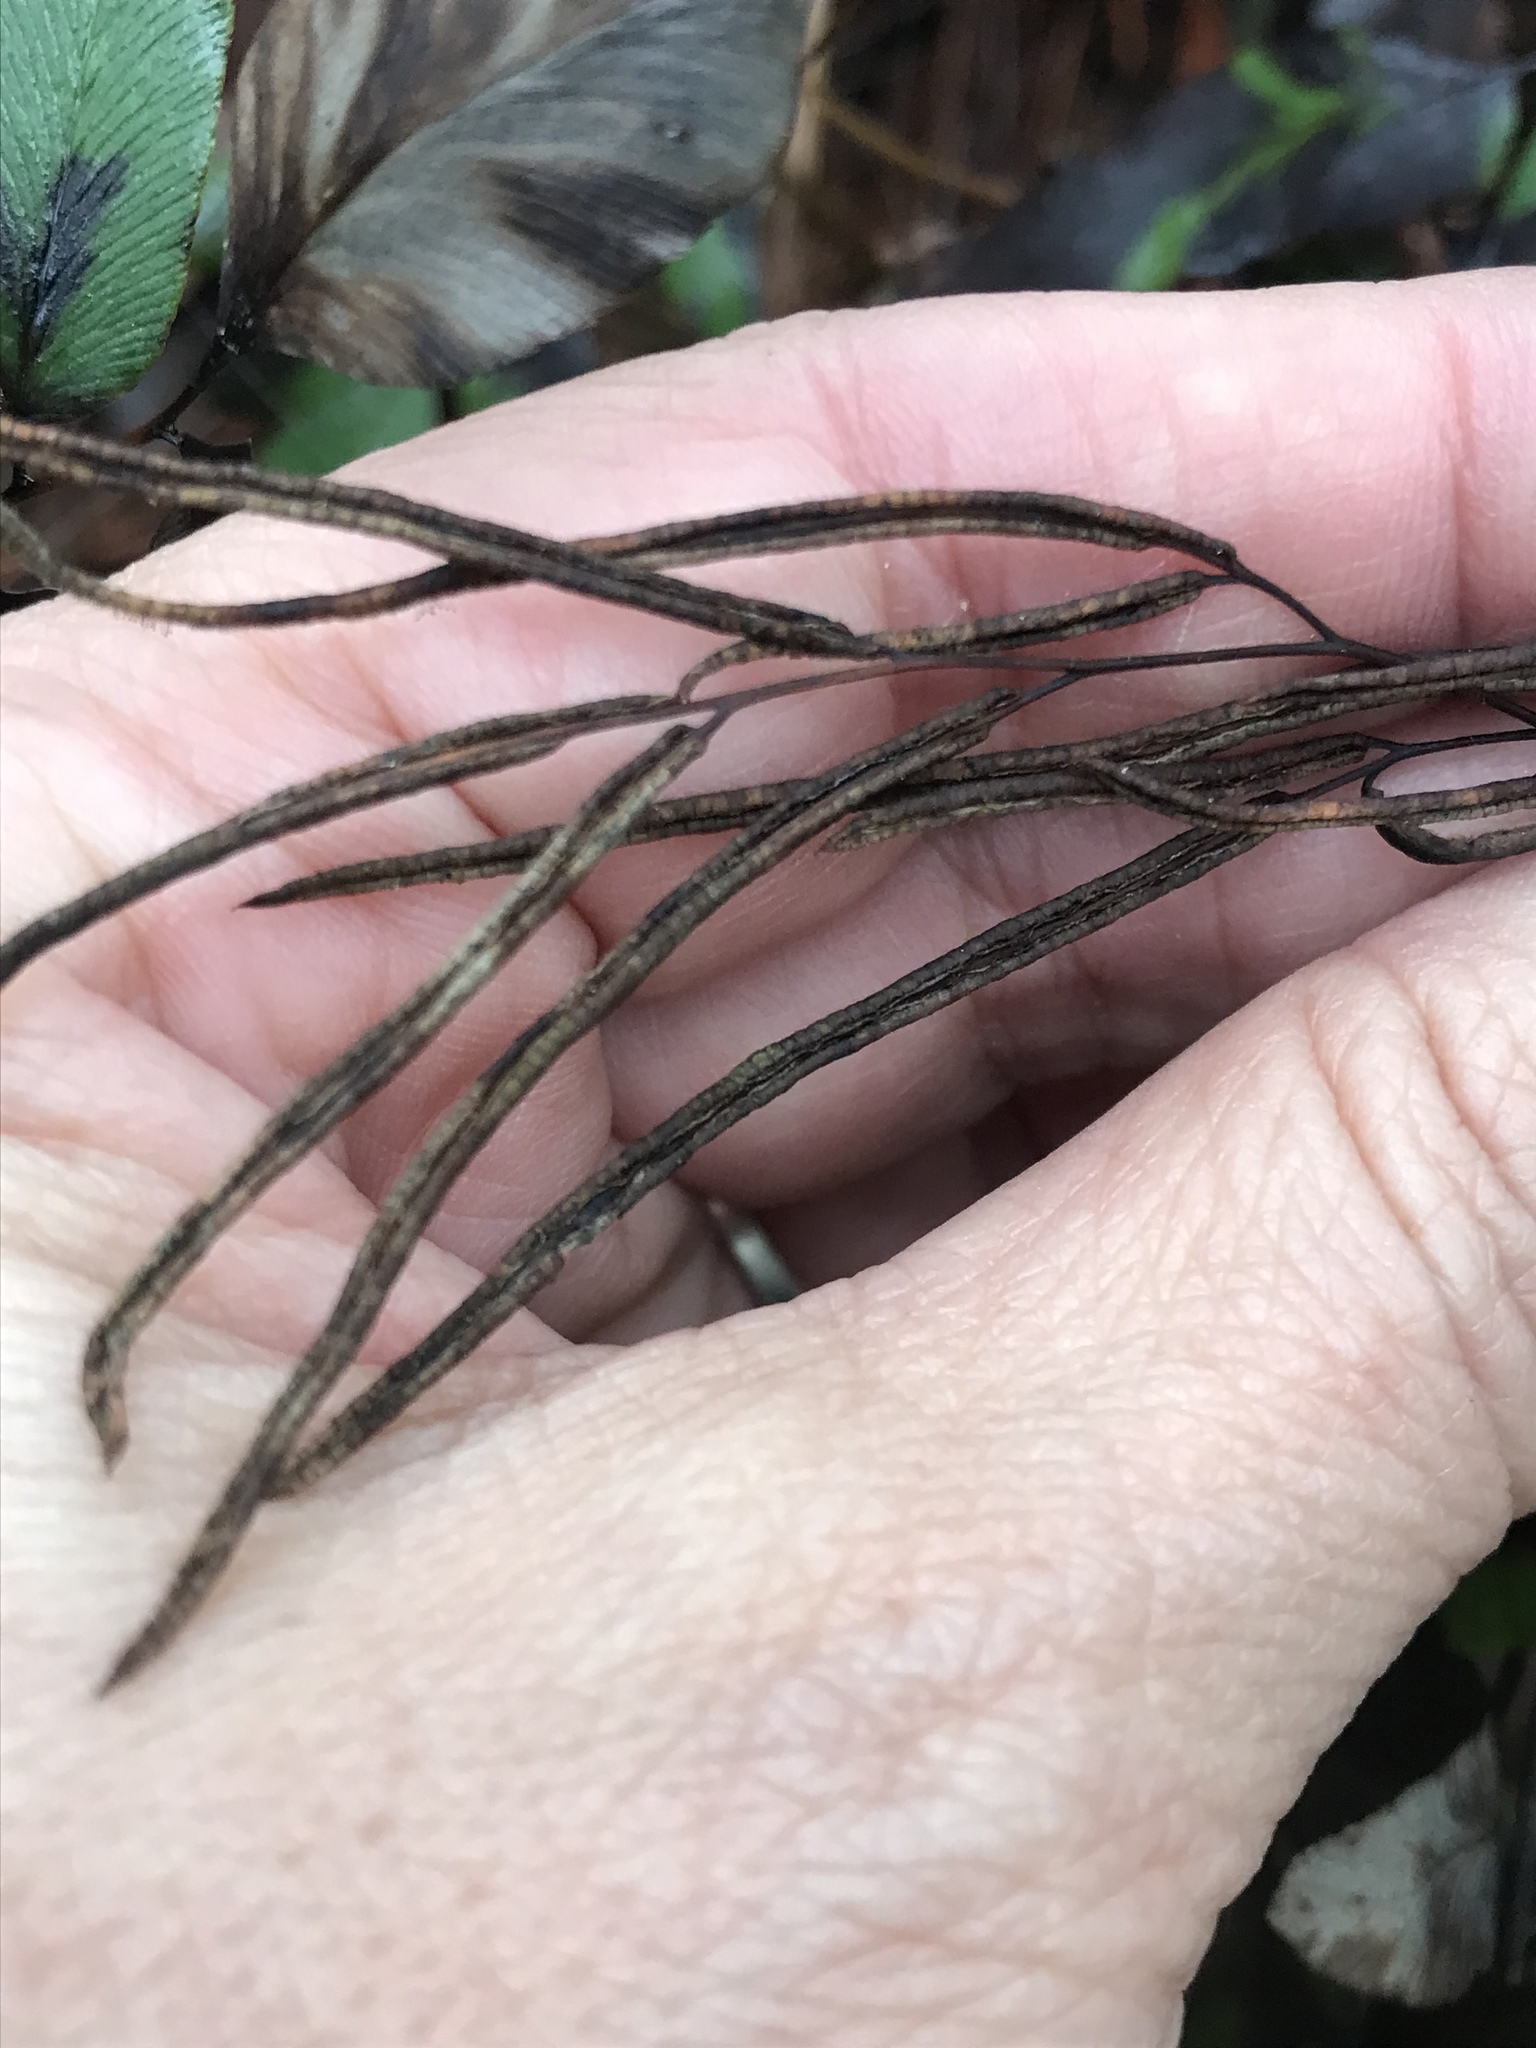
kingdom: Plantae
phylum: Tracheophyta
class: Polypodiopsida
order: Polypodiales
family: Pteridaceae
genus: Llavea
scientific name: Llavea cordifolia
